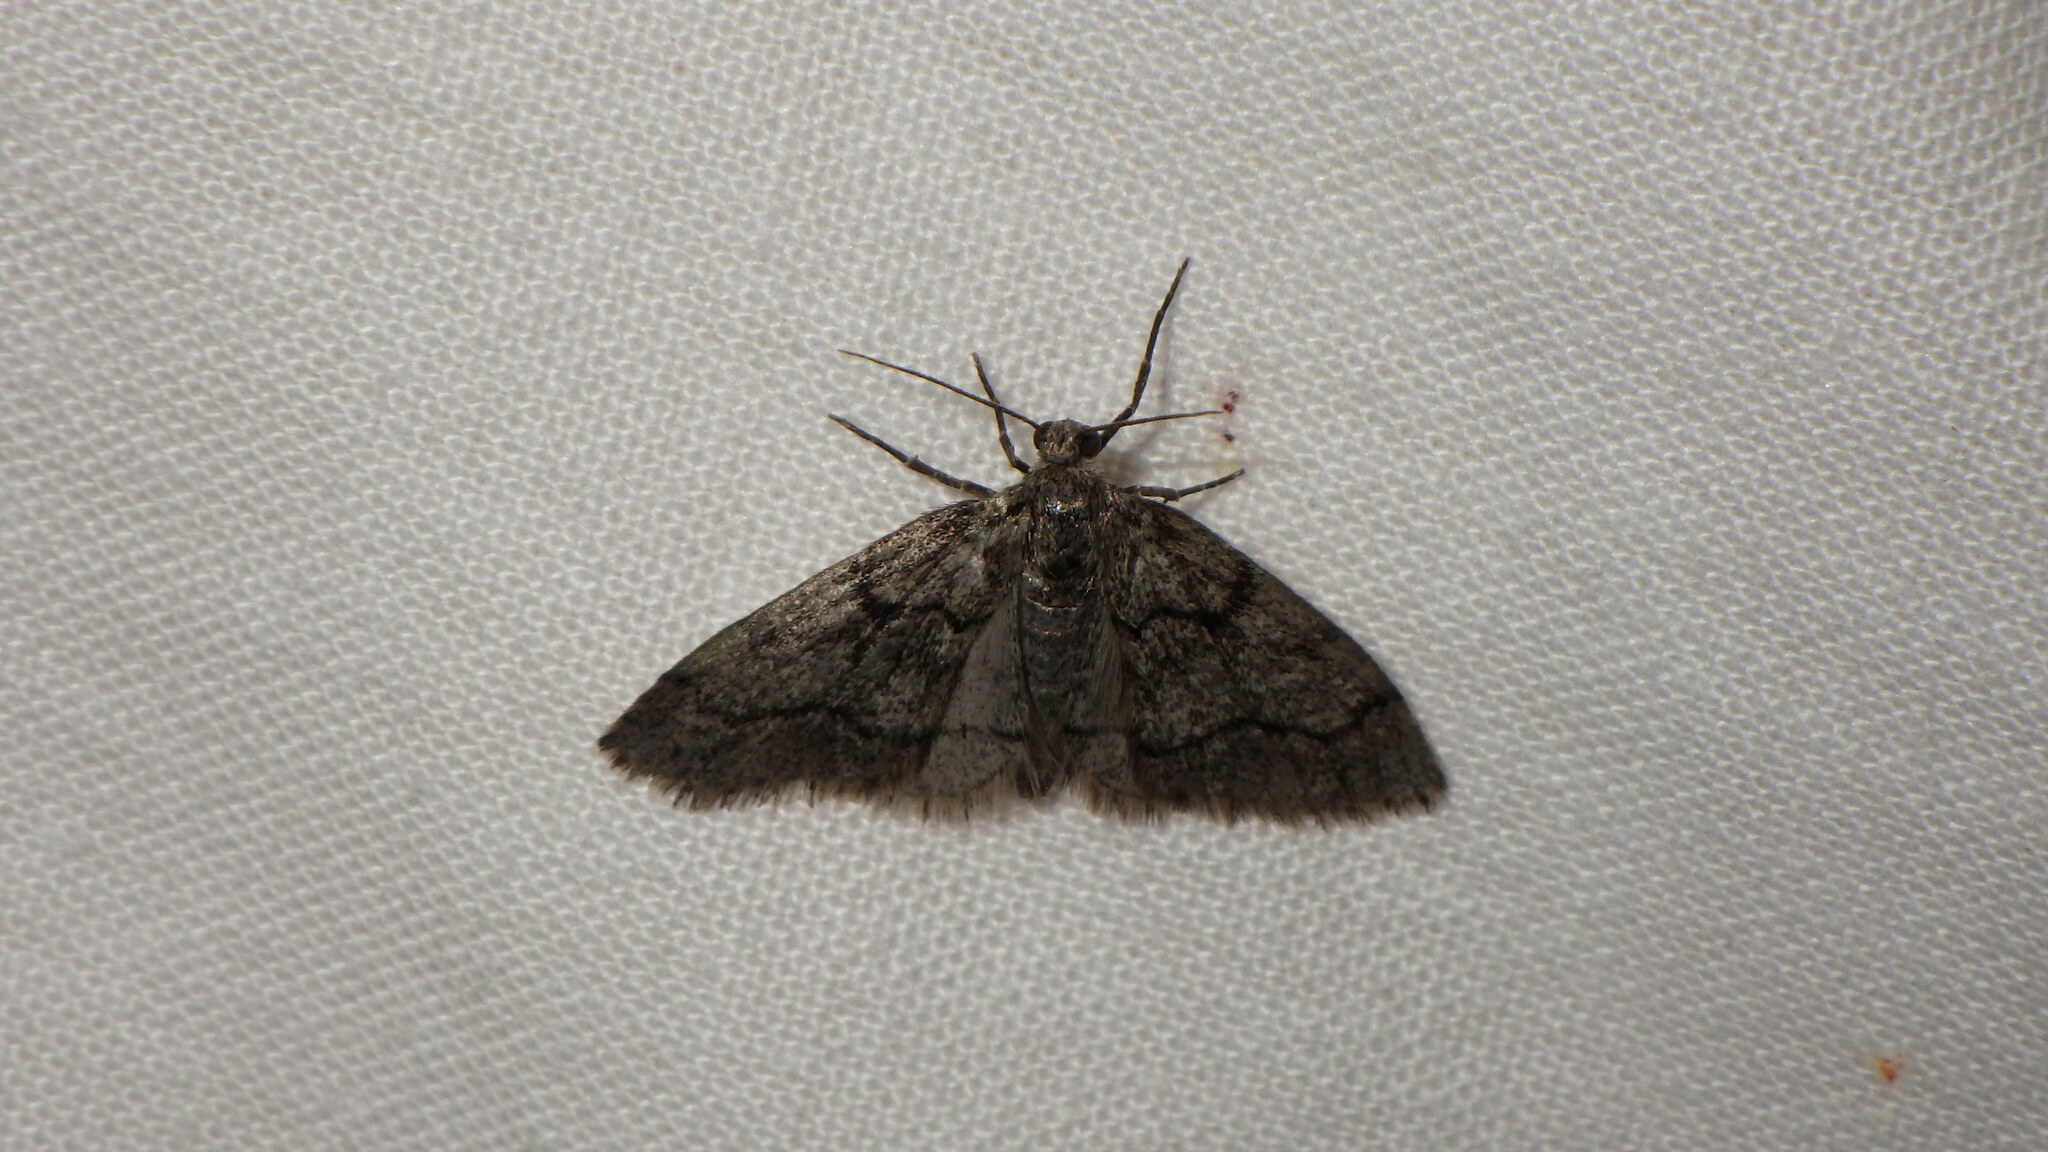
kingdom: Animalia
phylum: Arthropoda
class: Insecta
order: Lepidoptera
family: Geometridae
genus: Tephronia
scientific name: Tephronia sepiaria
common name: Dusky carpet
